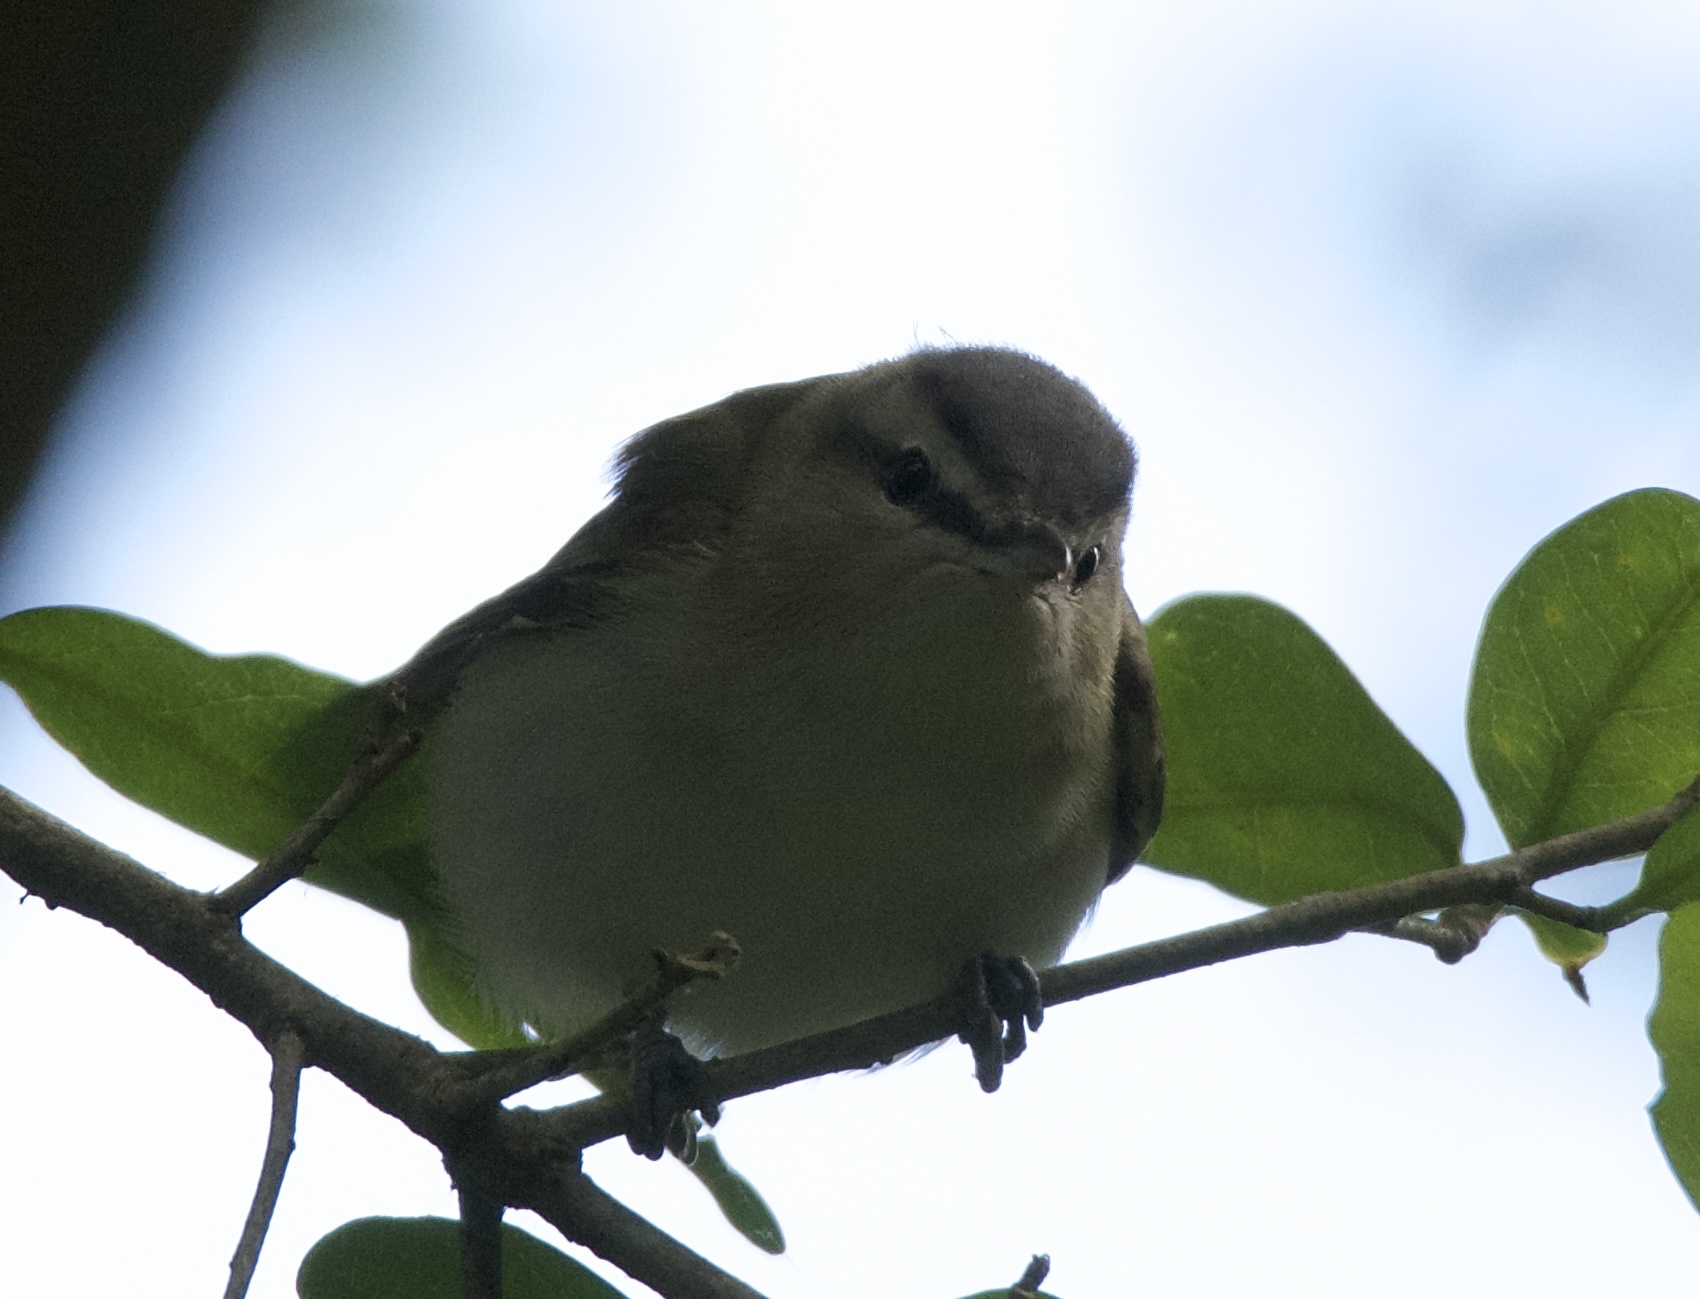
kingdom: Animalia
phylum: Chordata
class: Aves
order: Passeriformes
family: Vireonidae
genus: Vireo
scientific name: Vireo olivaceus
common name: Red-eyed vireo
